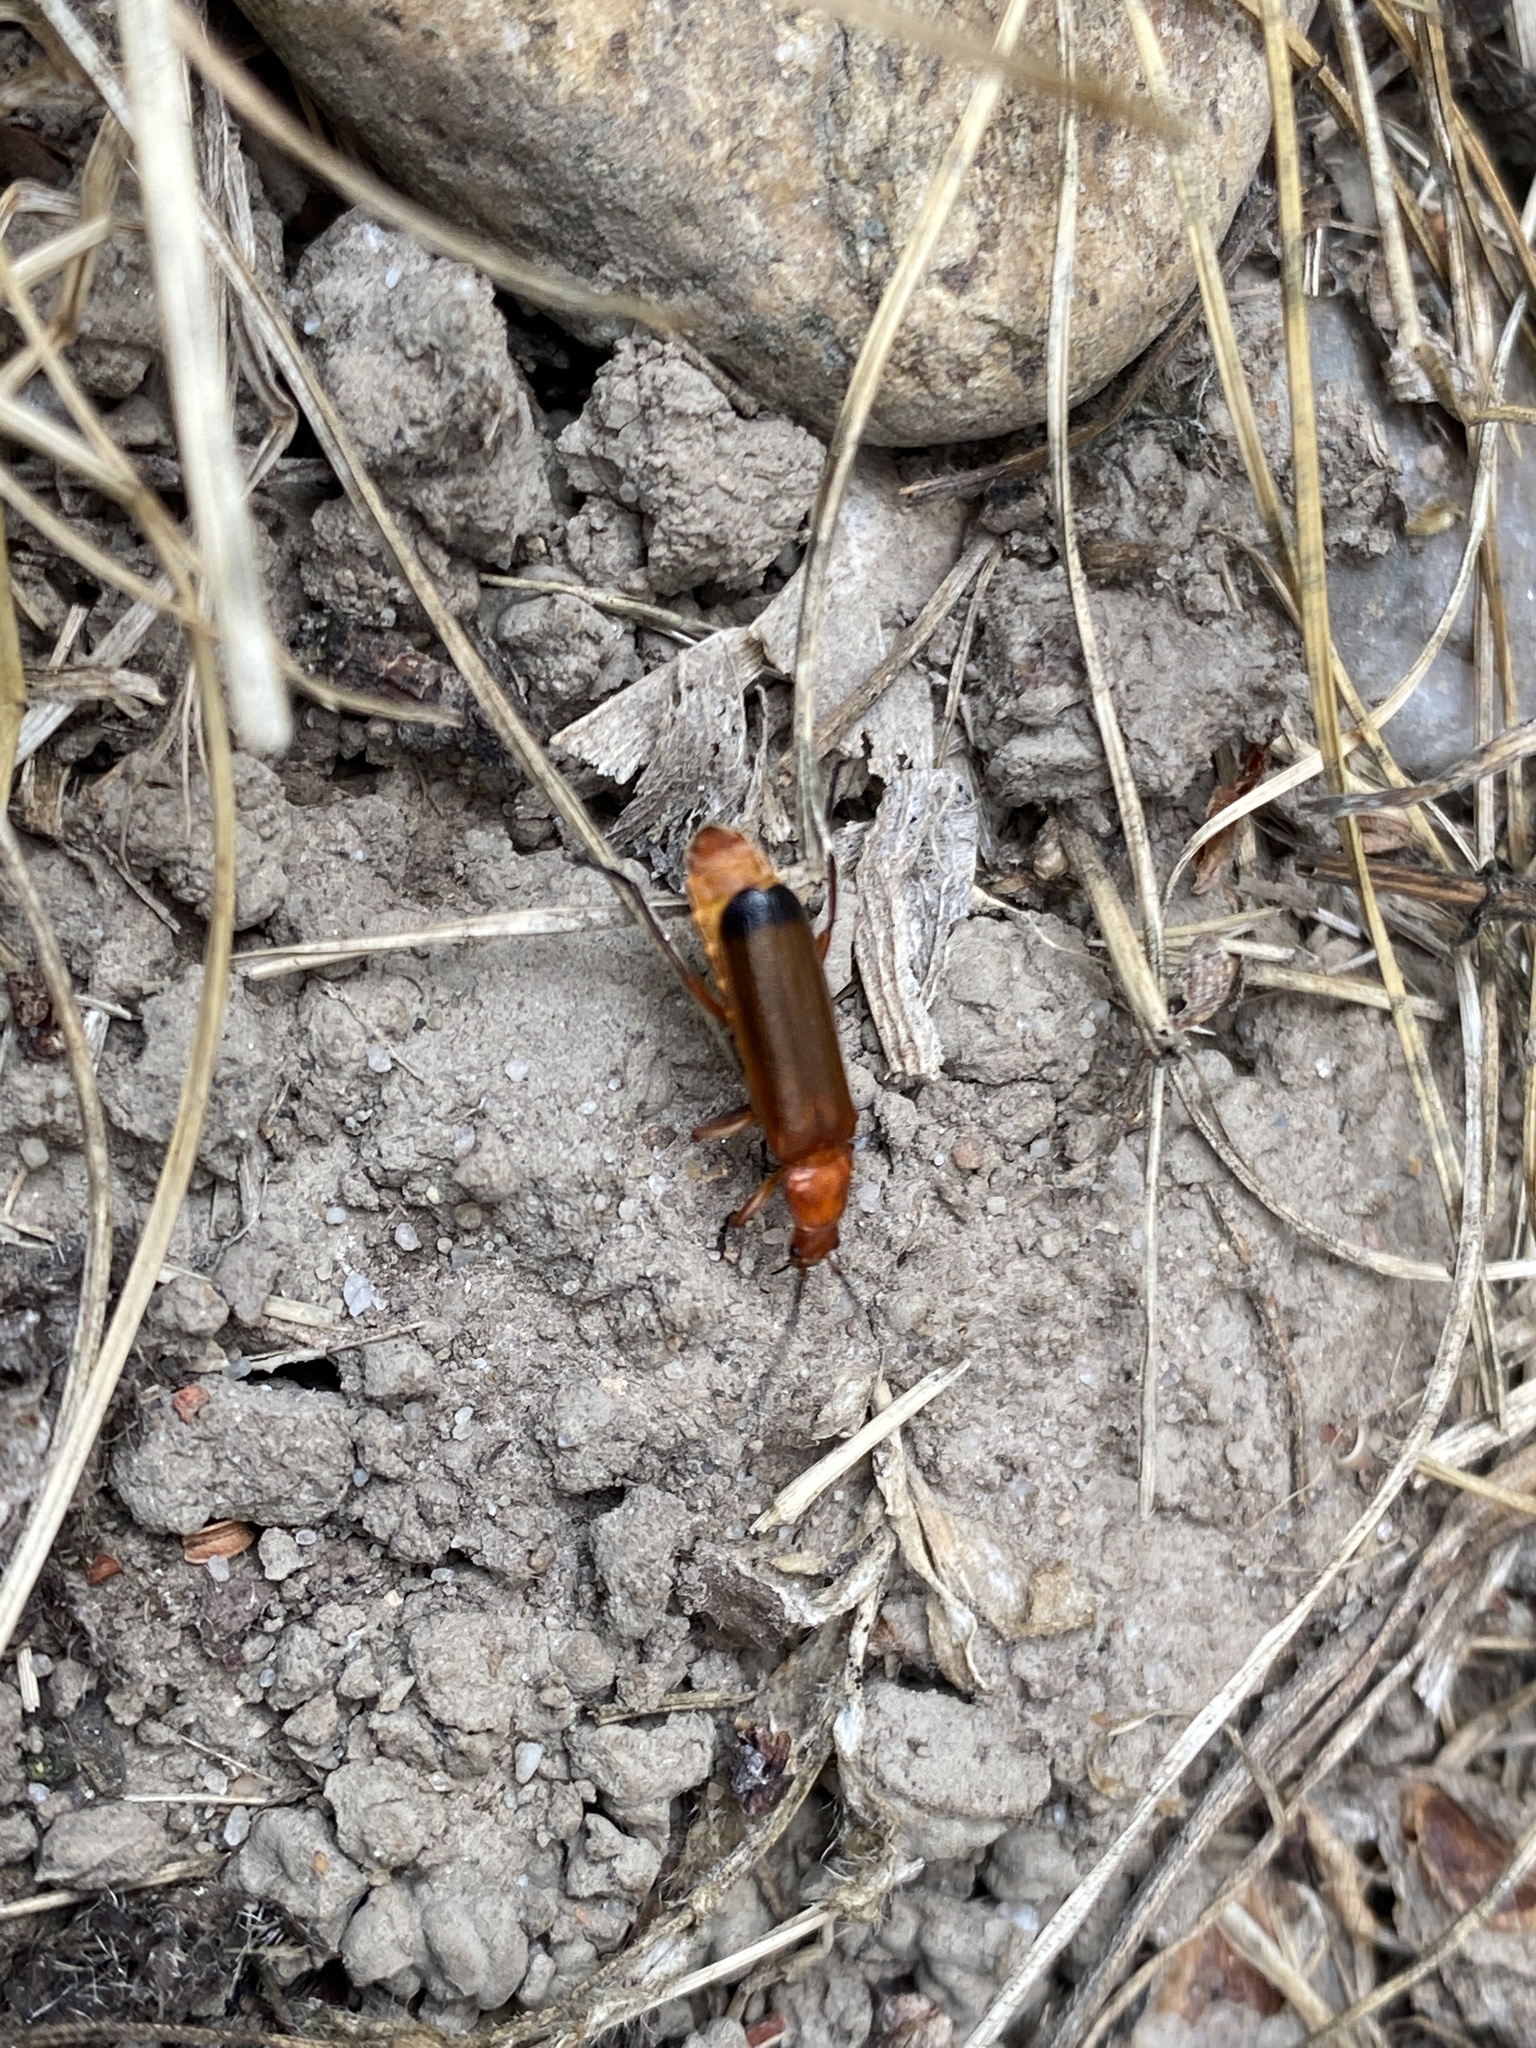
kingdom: Animalia
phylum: Arthropoda
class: Insecta
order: Coleoptera
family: Cantharidae
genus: Rhagonycha
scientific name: Rhagonycha fulva
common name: Common red soldier beetle
